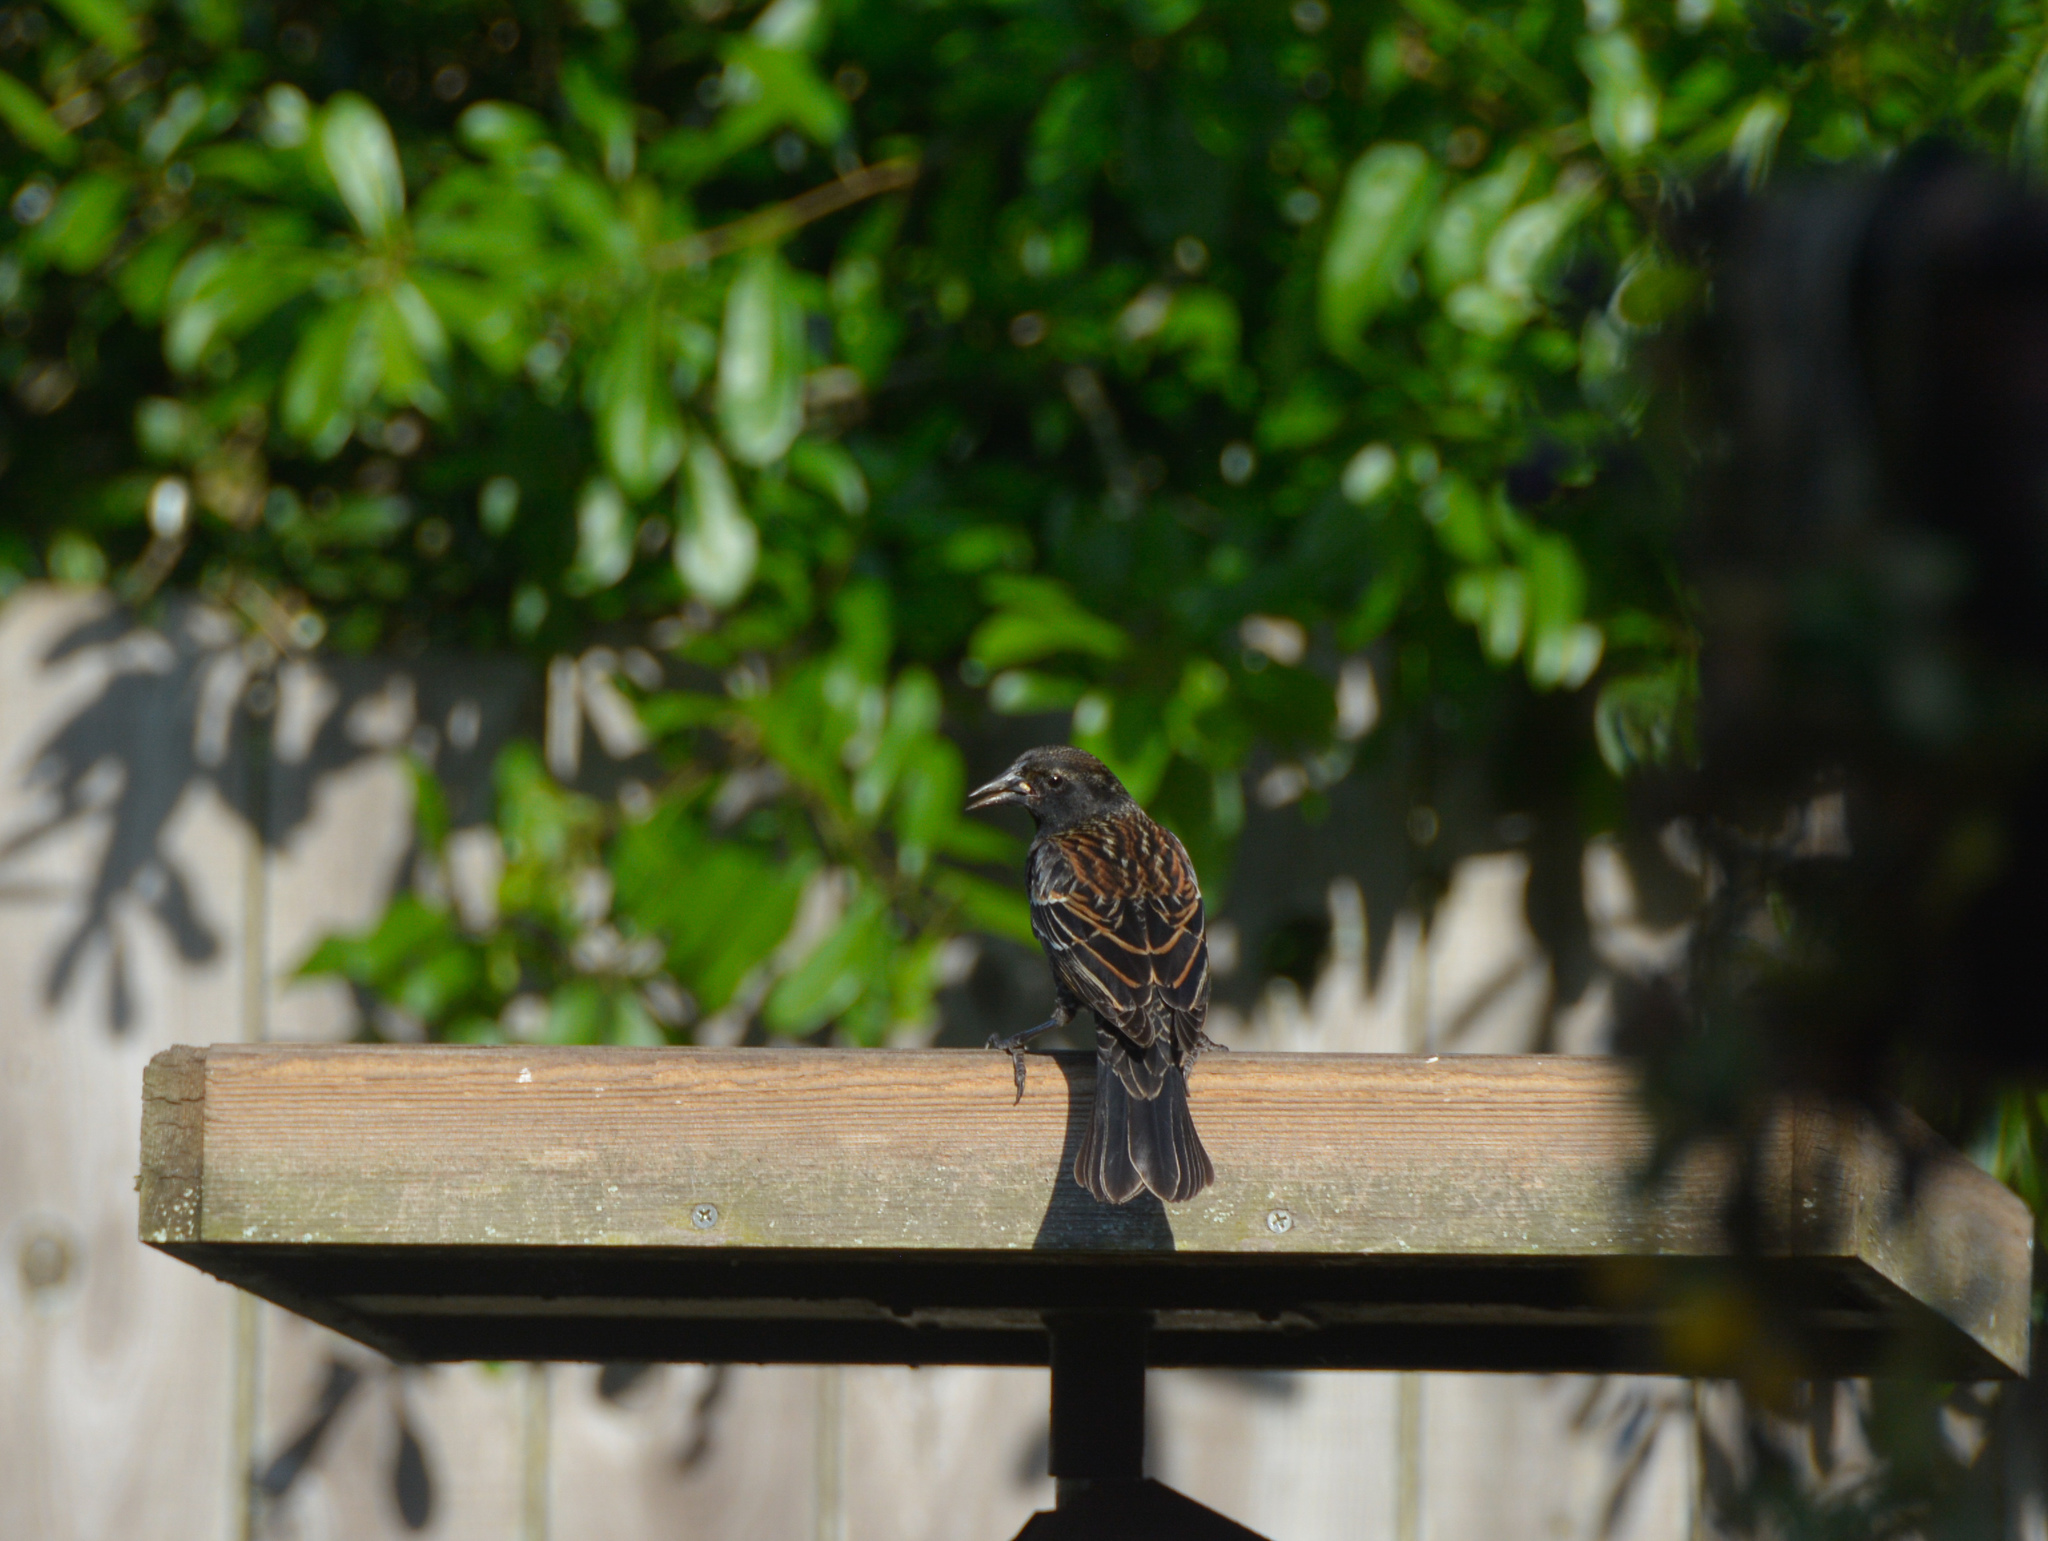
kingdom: Animalia
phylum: Chordata
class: Aves
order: Passeriformes
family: Icteridae
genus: Agelaius
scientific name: Agelaius phoeniceus
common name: Red-winged blackbird
